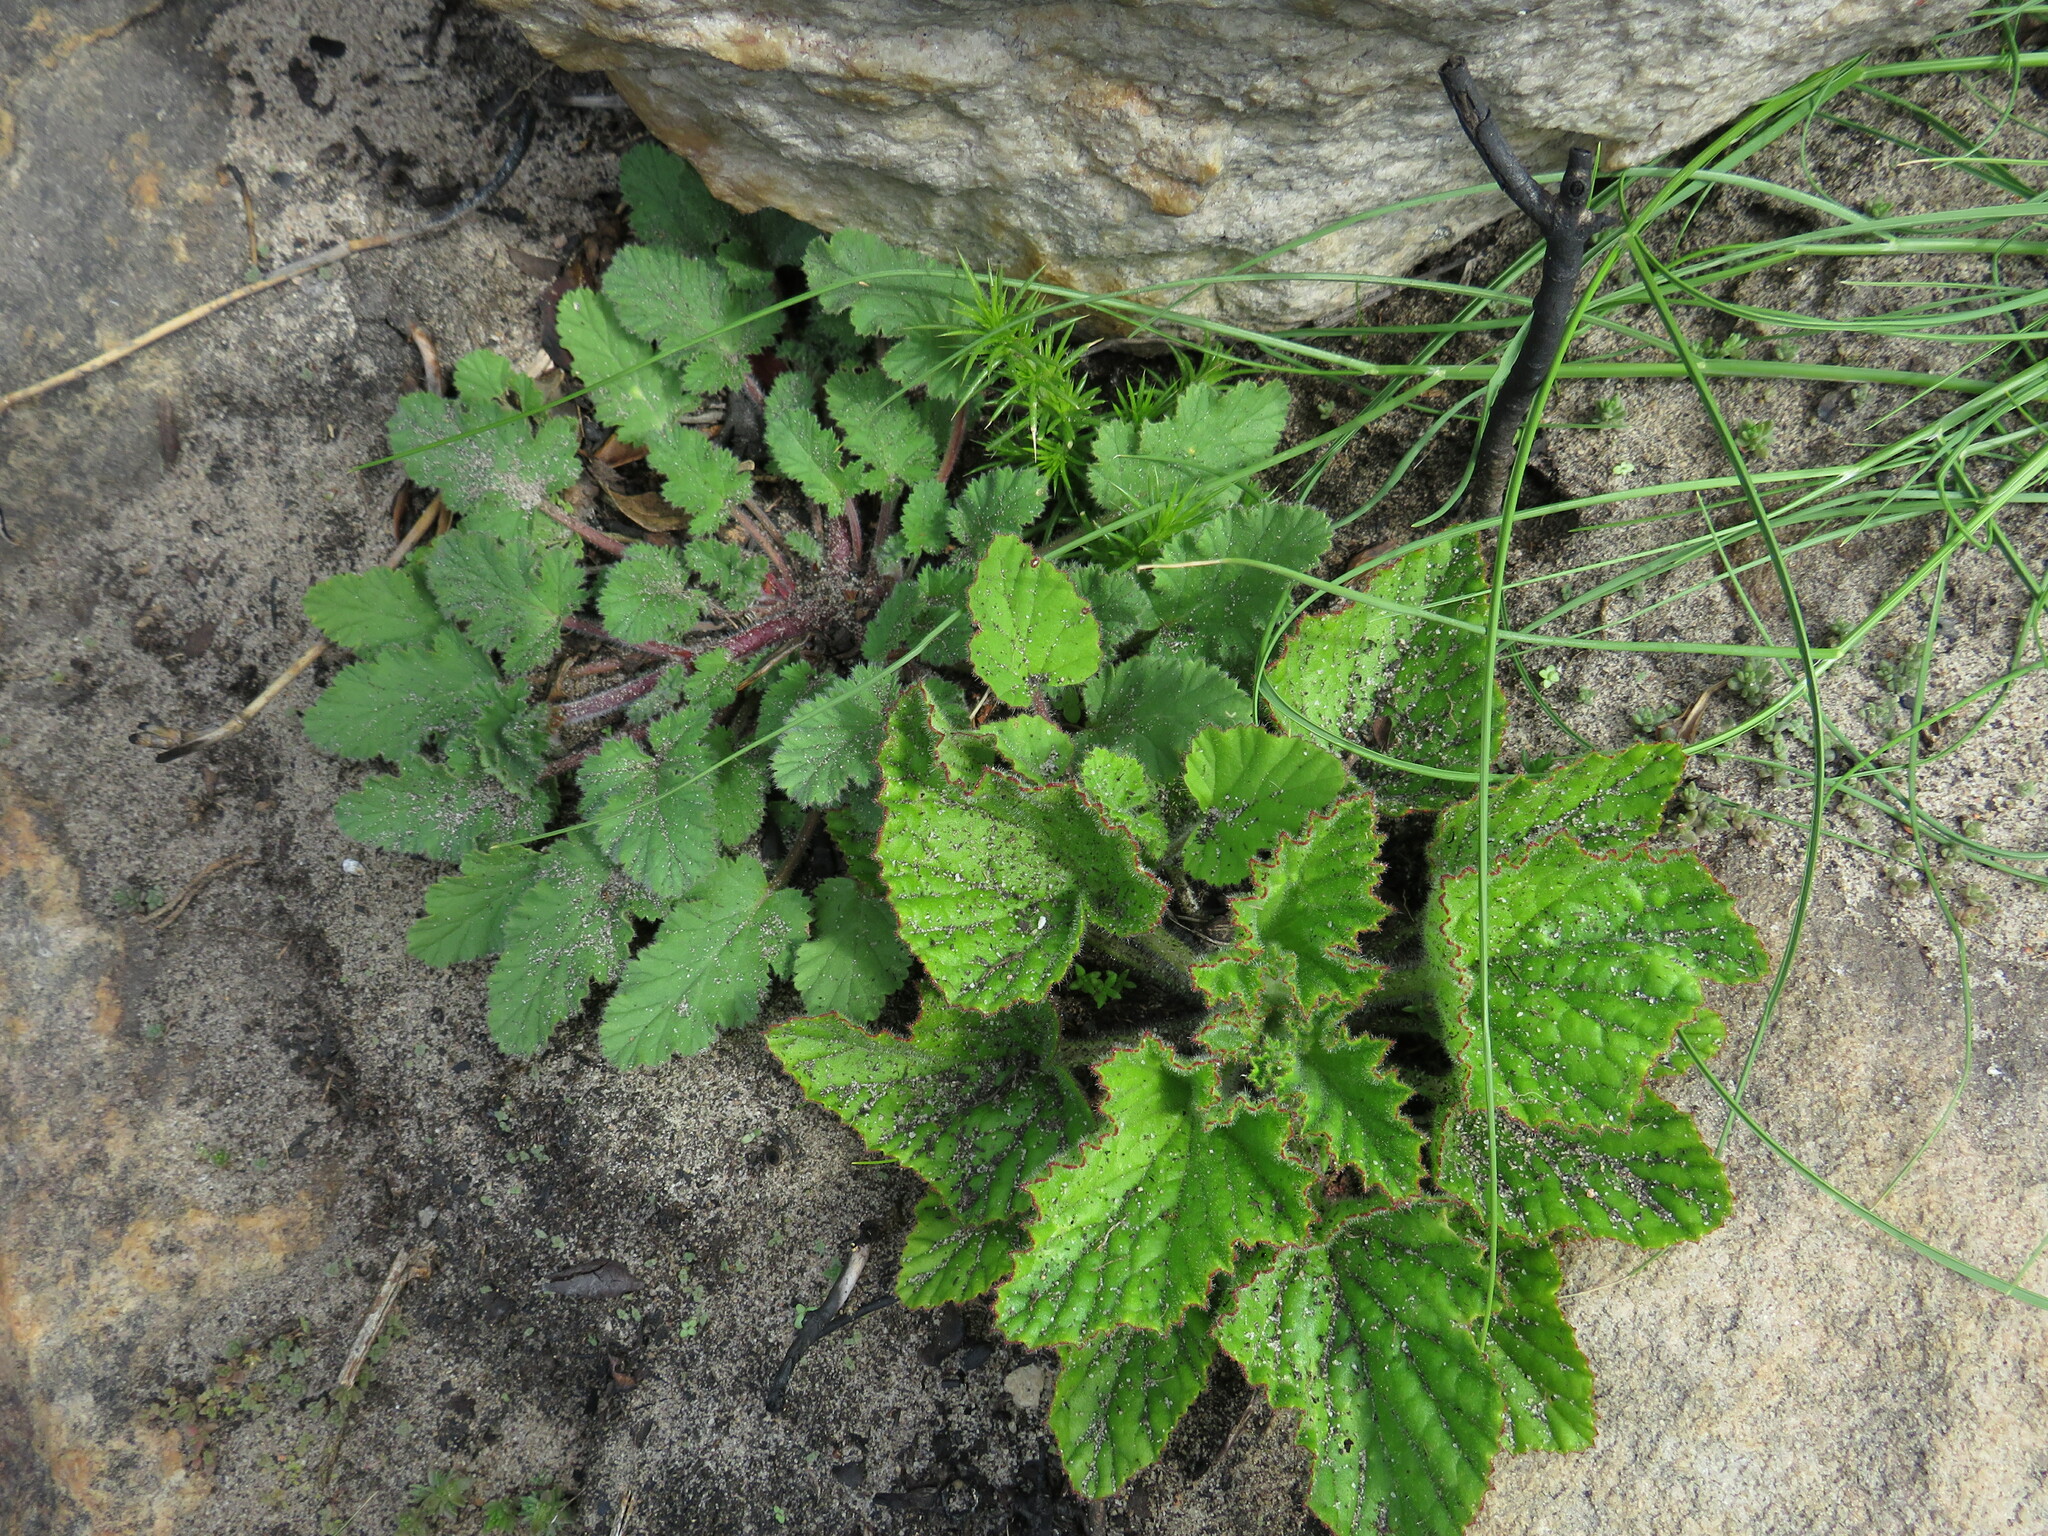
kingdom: Plantae
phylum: Tracheophyta
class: Magnoliopsida
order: Geraniales
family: Geraniaceae
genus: Pelargonium
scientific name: Pelargonium althaeoides
